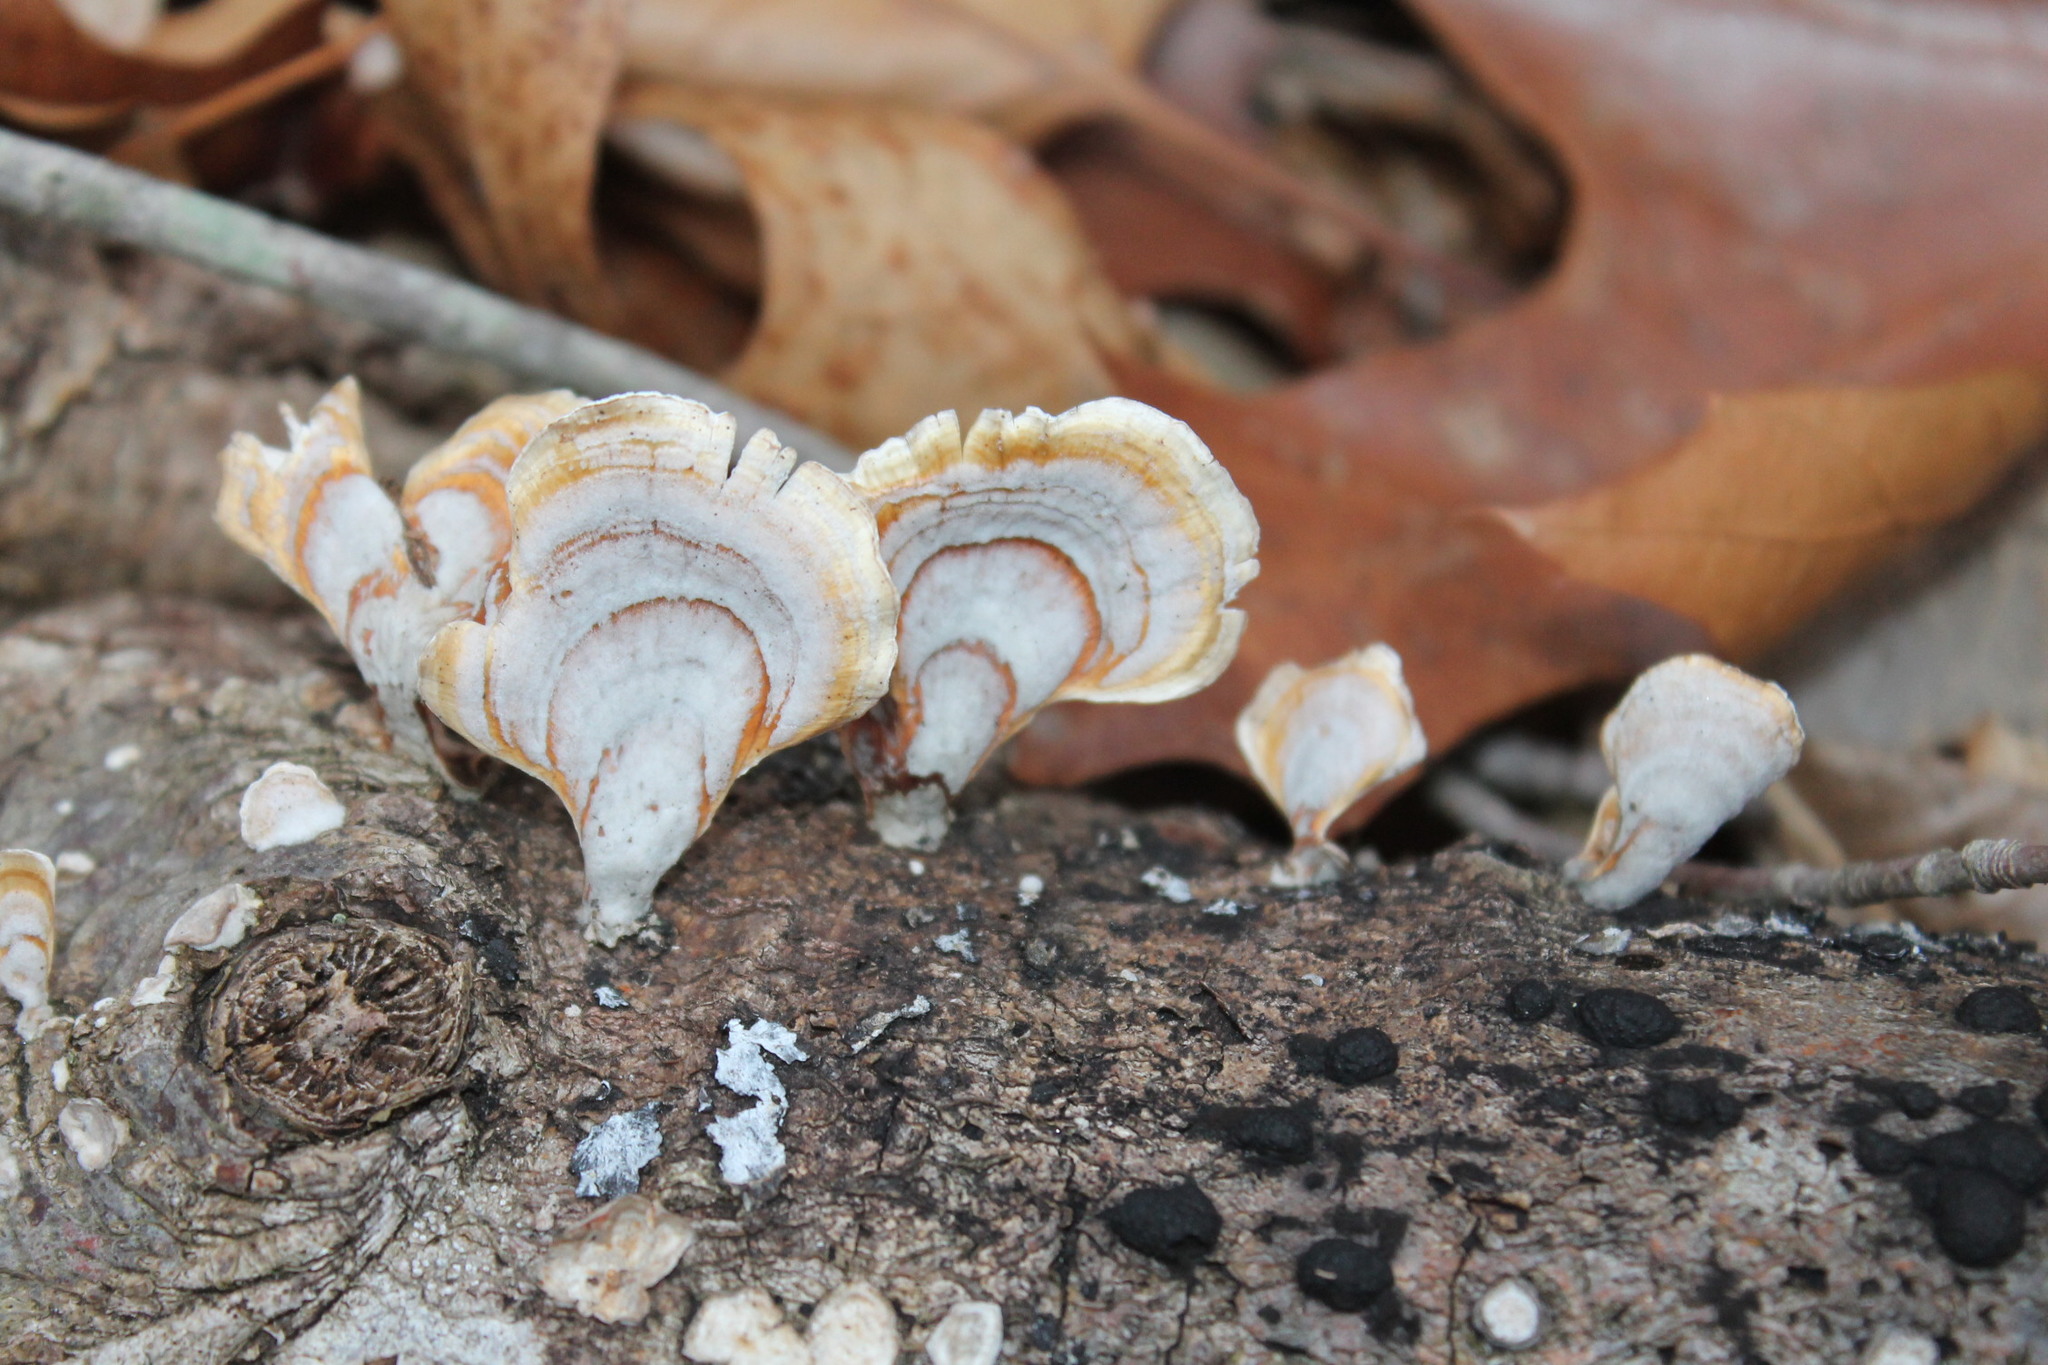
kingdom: Fungi
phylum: Basidiomycota
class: Agaricomycetes
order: Russulales
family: Stereaceae
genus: Stereum
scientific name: Stereum lobatum
